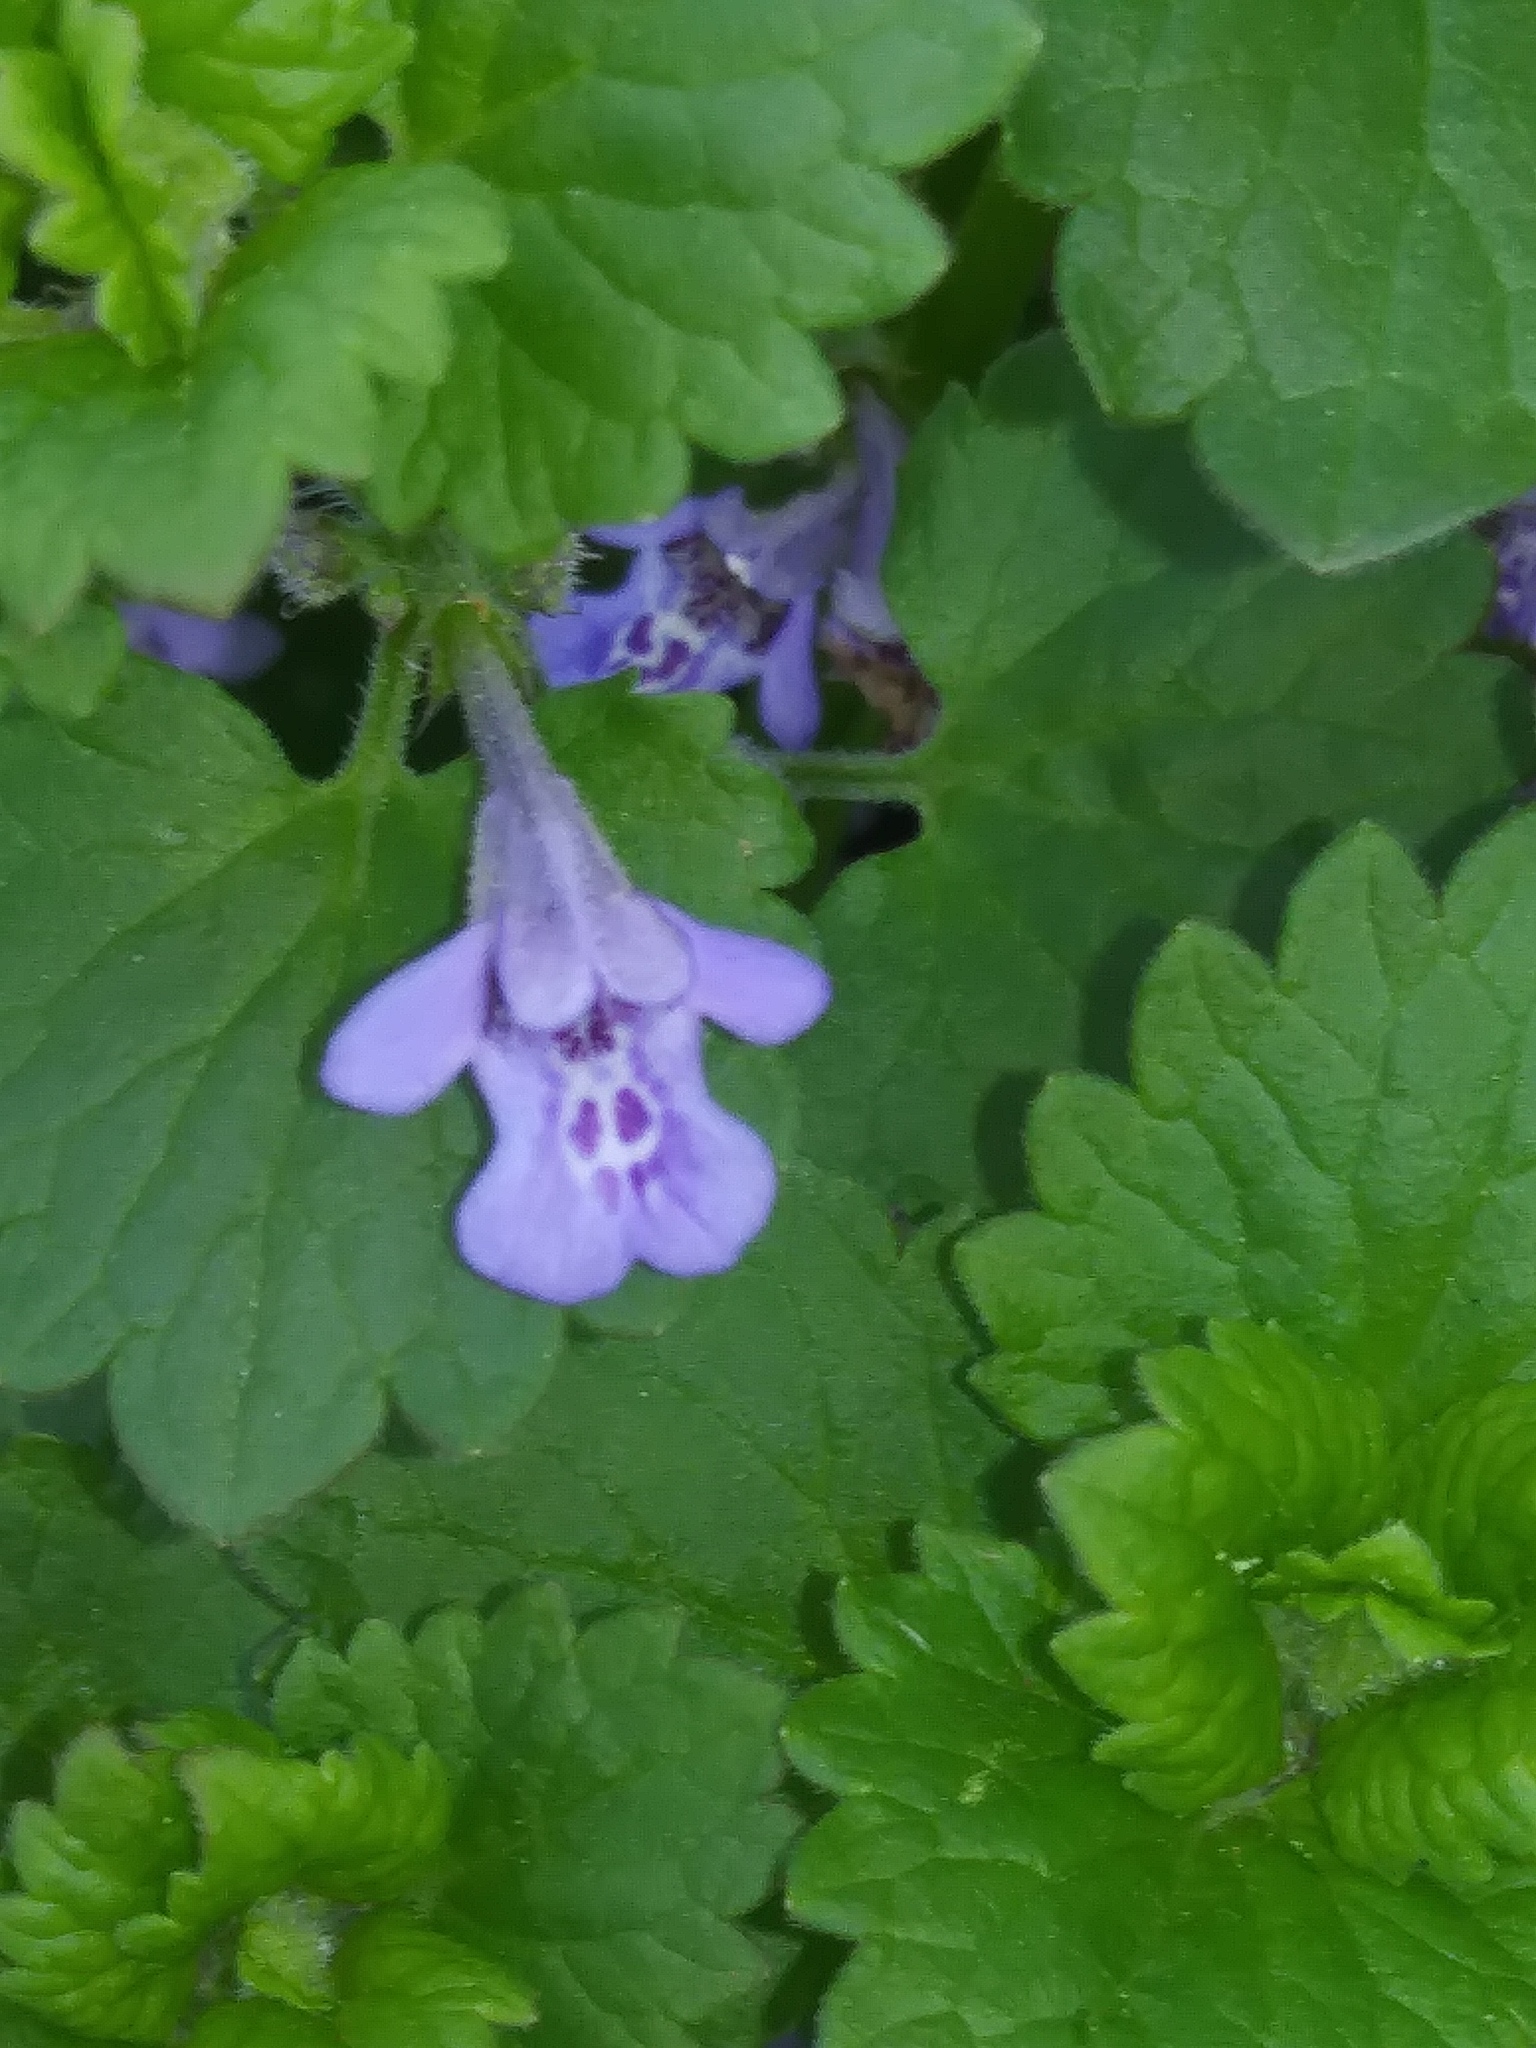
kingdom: Plantae
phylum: Tracheophyta
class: Magnoliopsida
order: Lamiales
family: Lamiaceae
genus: Glechoma
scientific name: Glechoma hederacea
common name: Ground ivy
